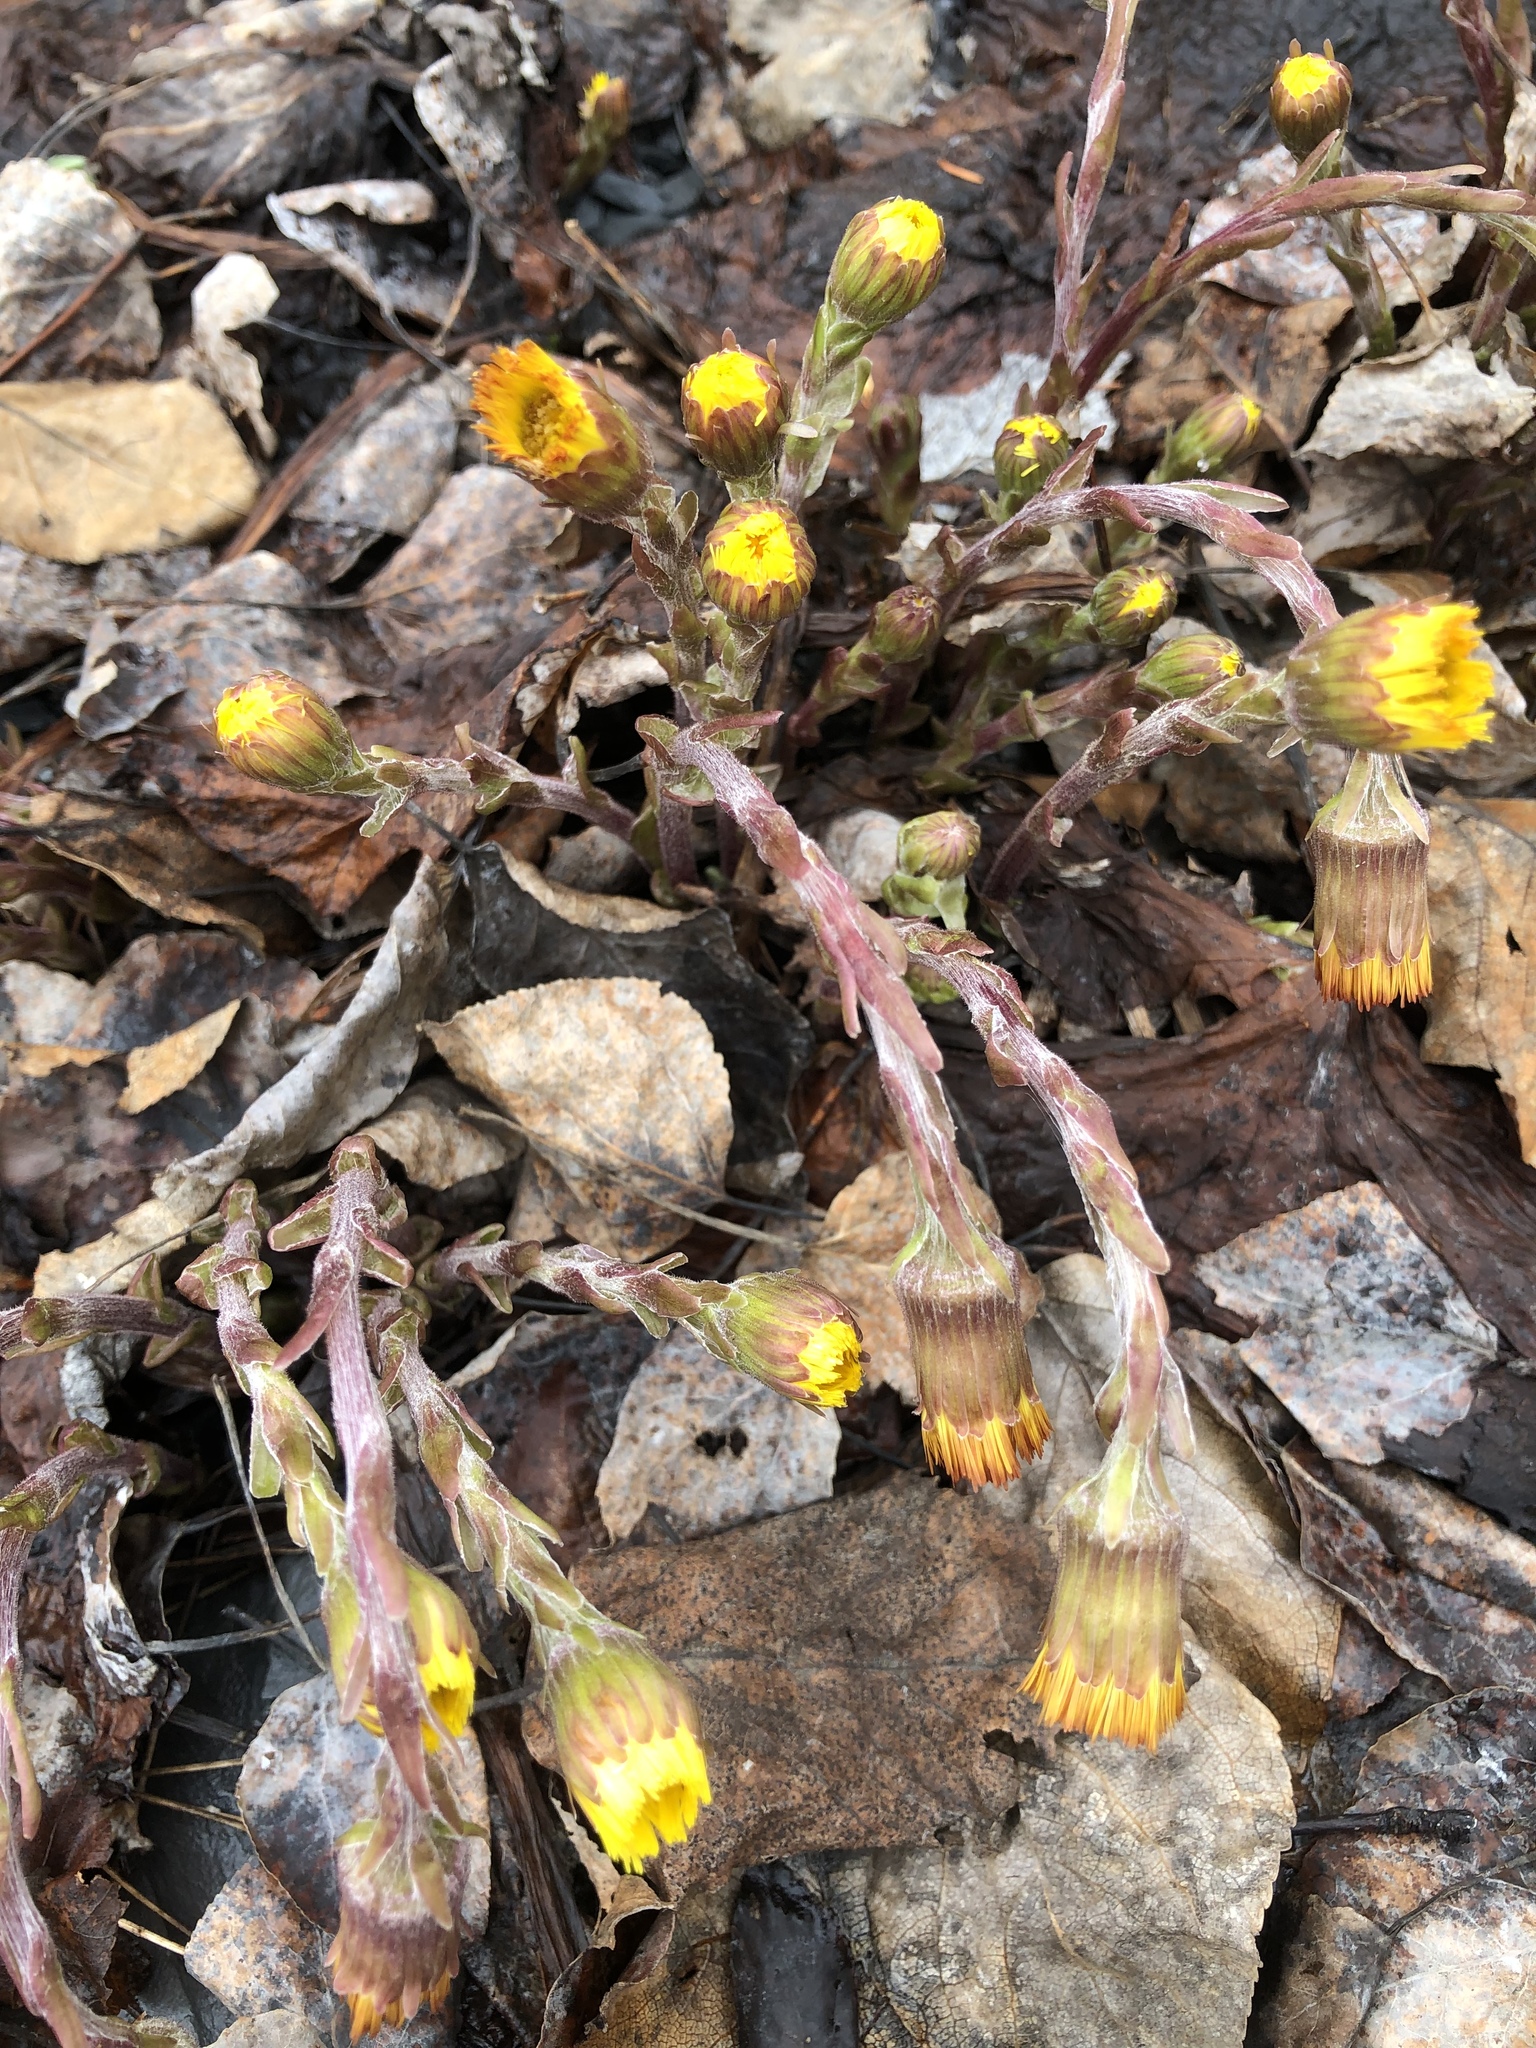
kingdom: Plantae
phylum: Tracheophyta
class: Magnoliopsida
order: Asterales
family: Asteraceae
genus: Tussilago
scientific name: Tussilago farfara
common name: Coltsfoot
